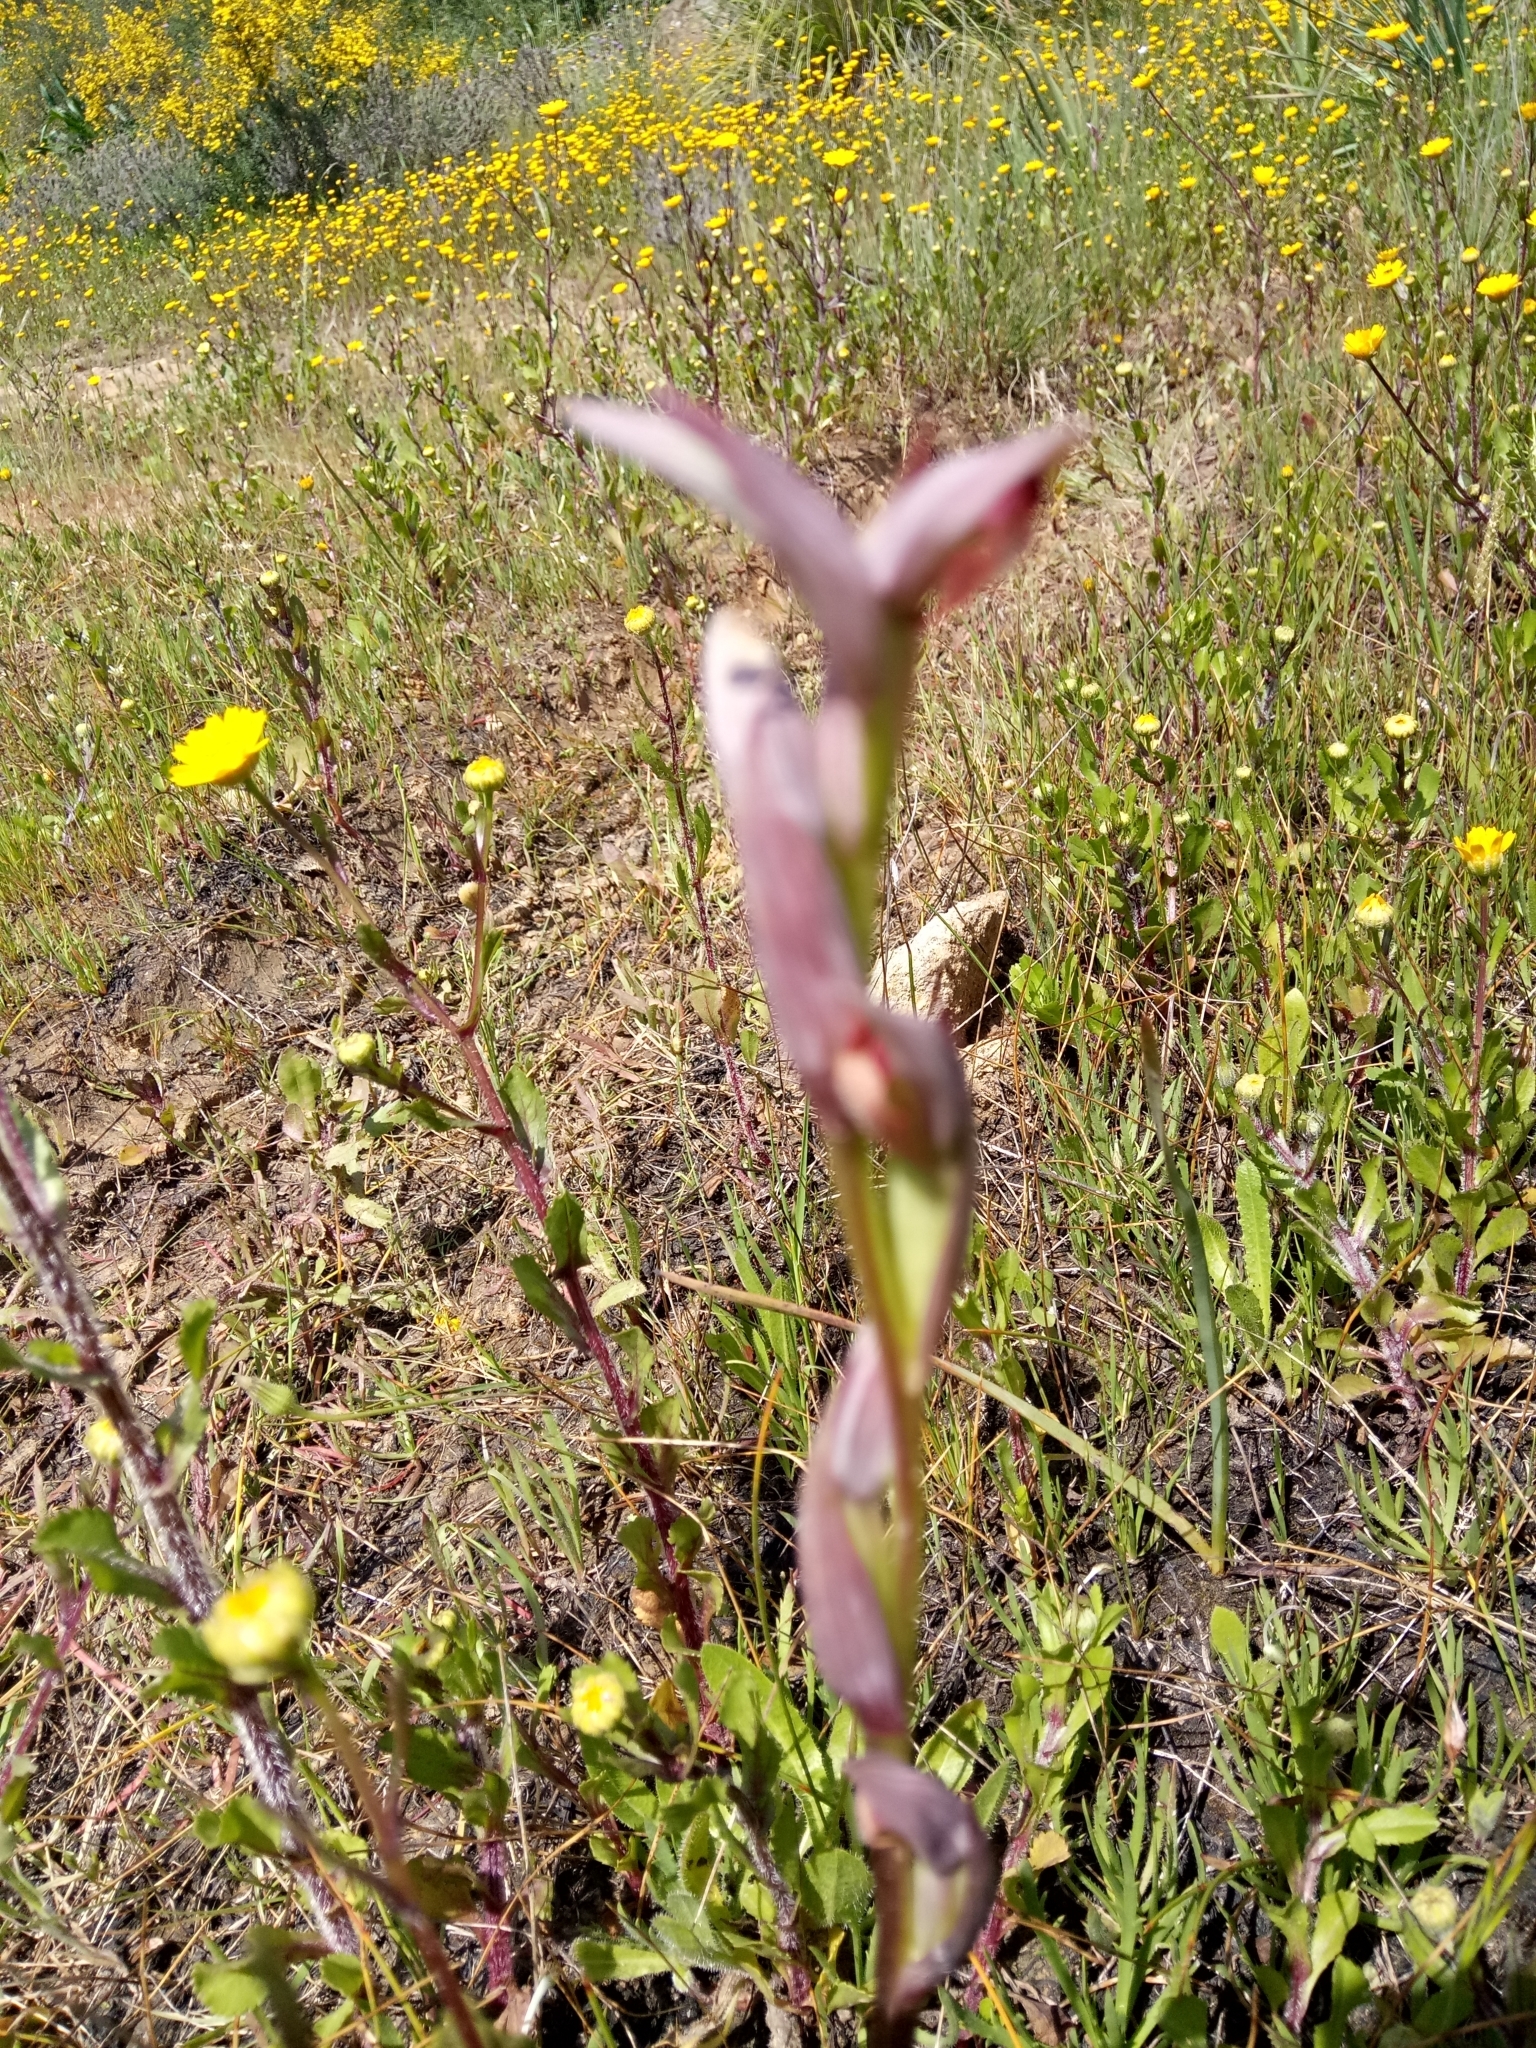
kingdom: Plantae
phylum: Tracheophyta
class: Liliopsida
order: Asparagales
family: Orchidaceae
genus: Serapias
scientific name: Serapias parviflora
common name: Small-flowered tongue-orchid
